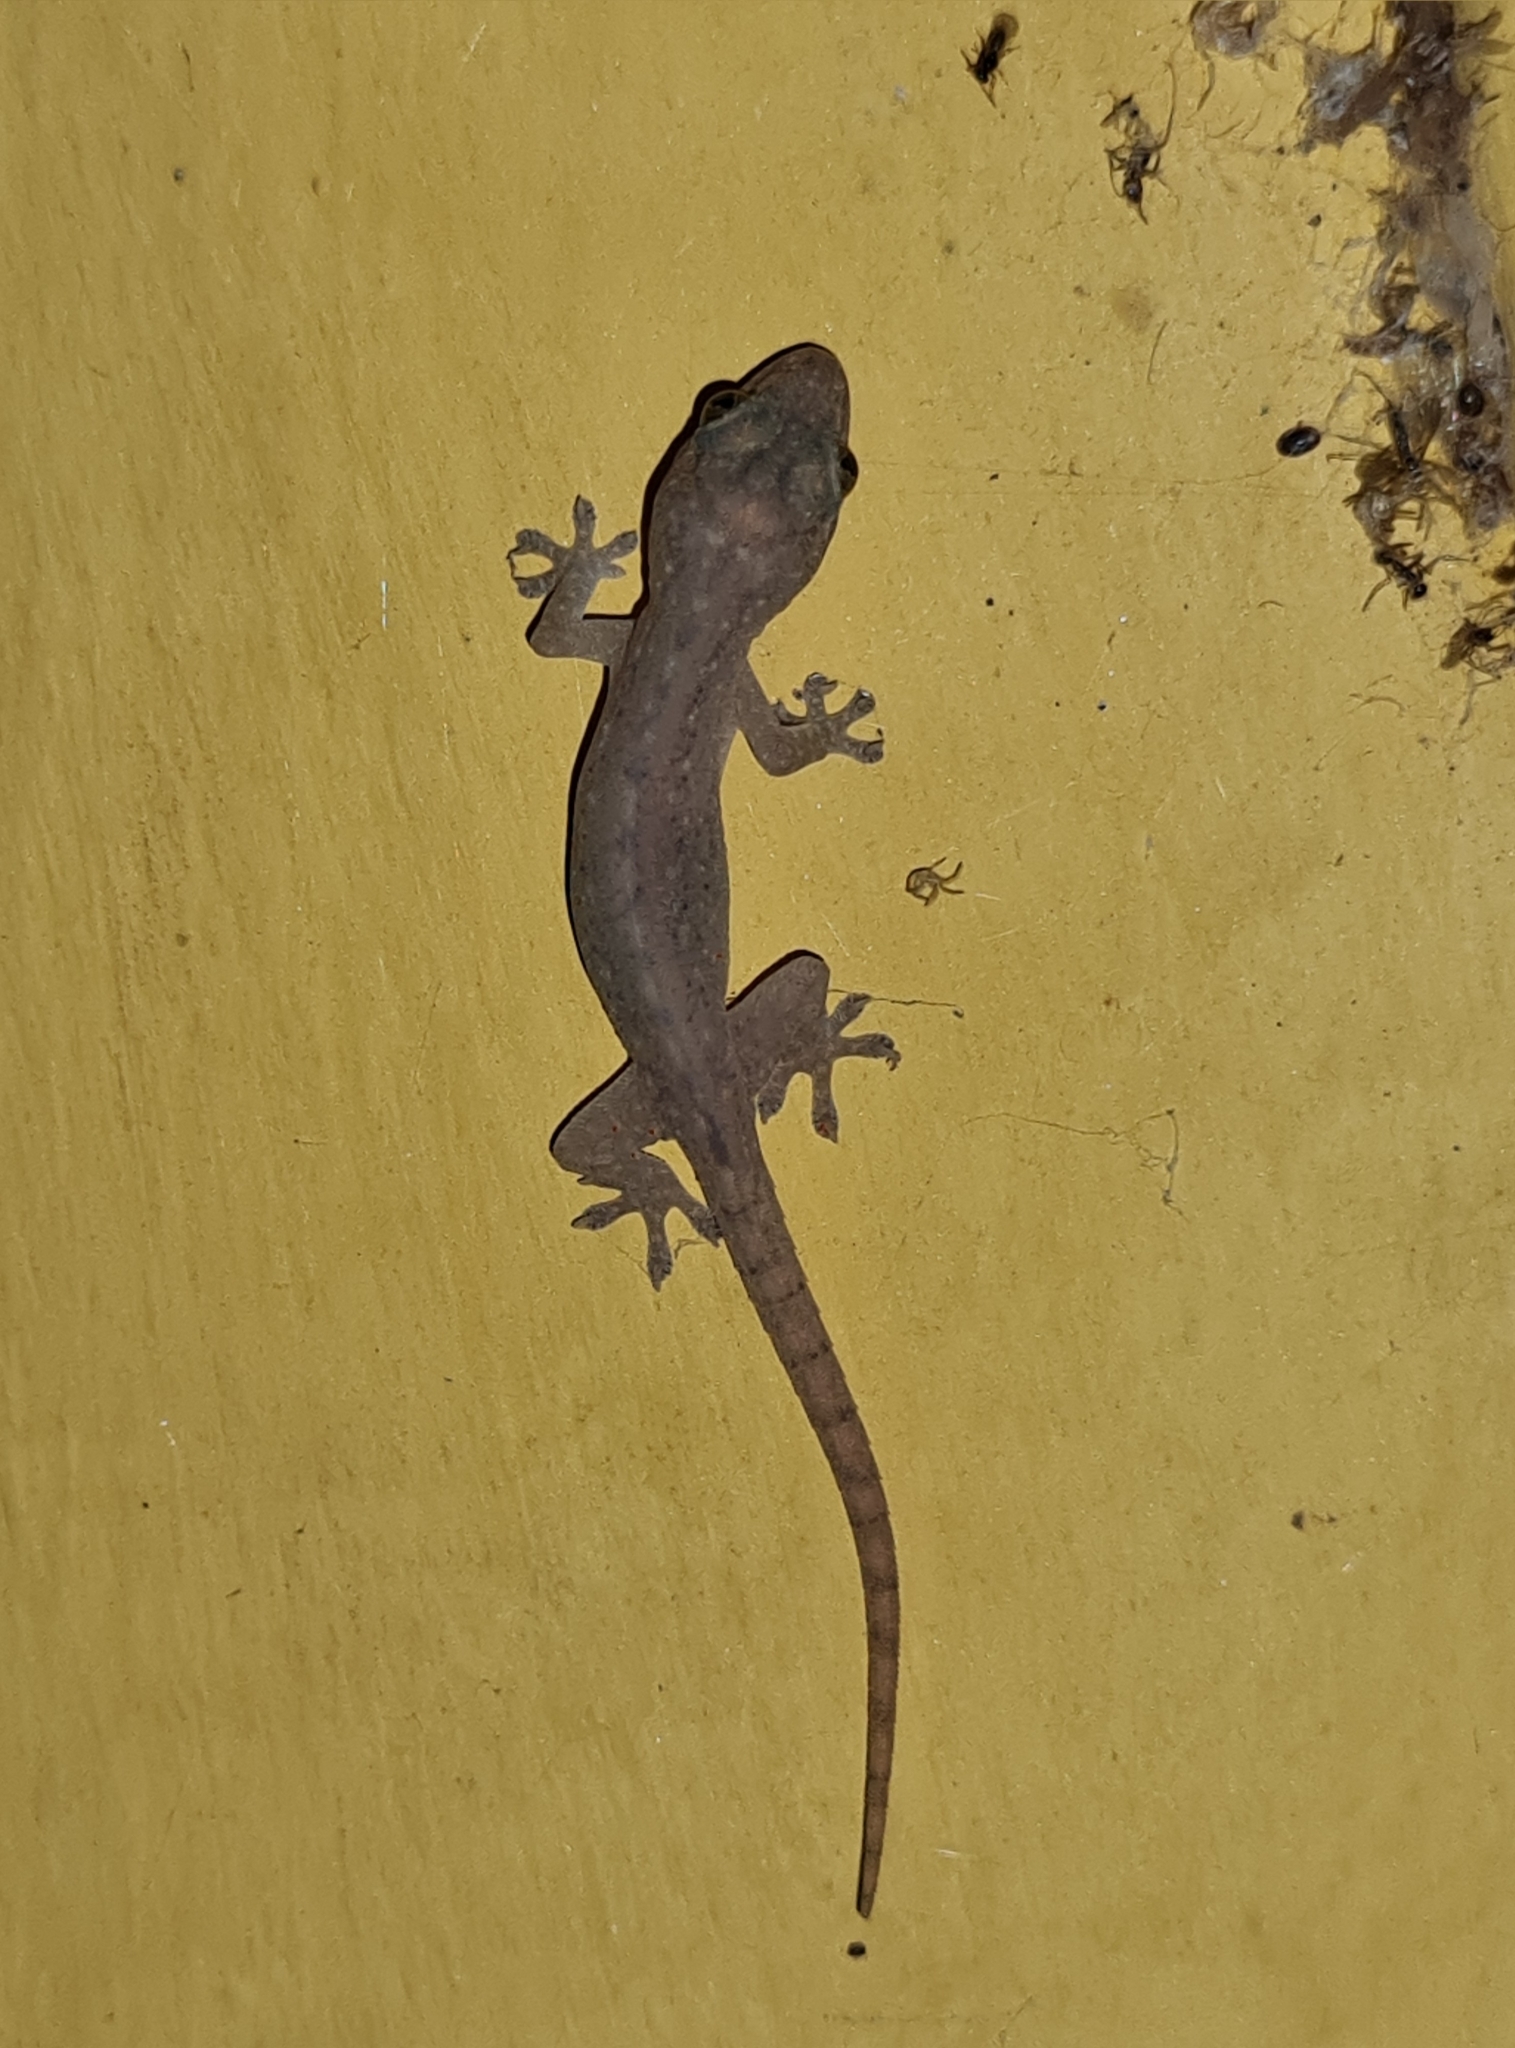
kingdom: Animalia
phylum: Chordata
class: Squamata
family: Gekkonidae
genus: Hemidactylus
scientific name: Hemidactylus frenatus
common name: Common house gecko
